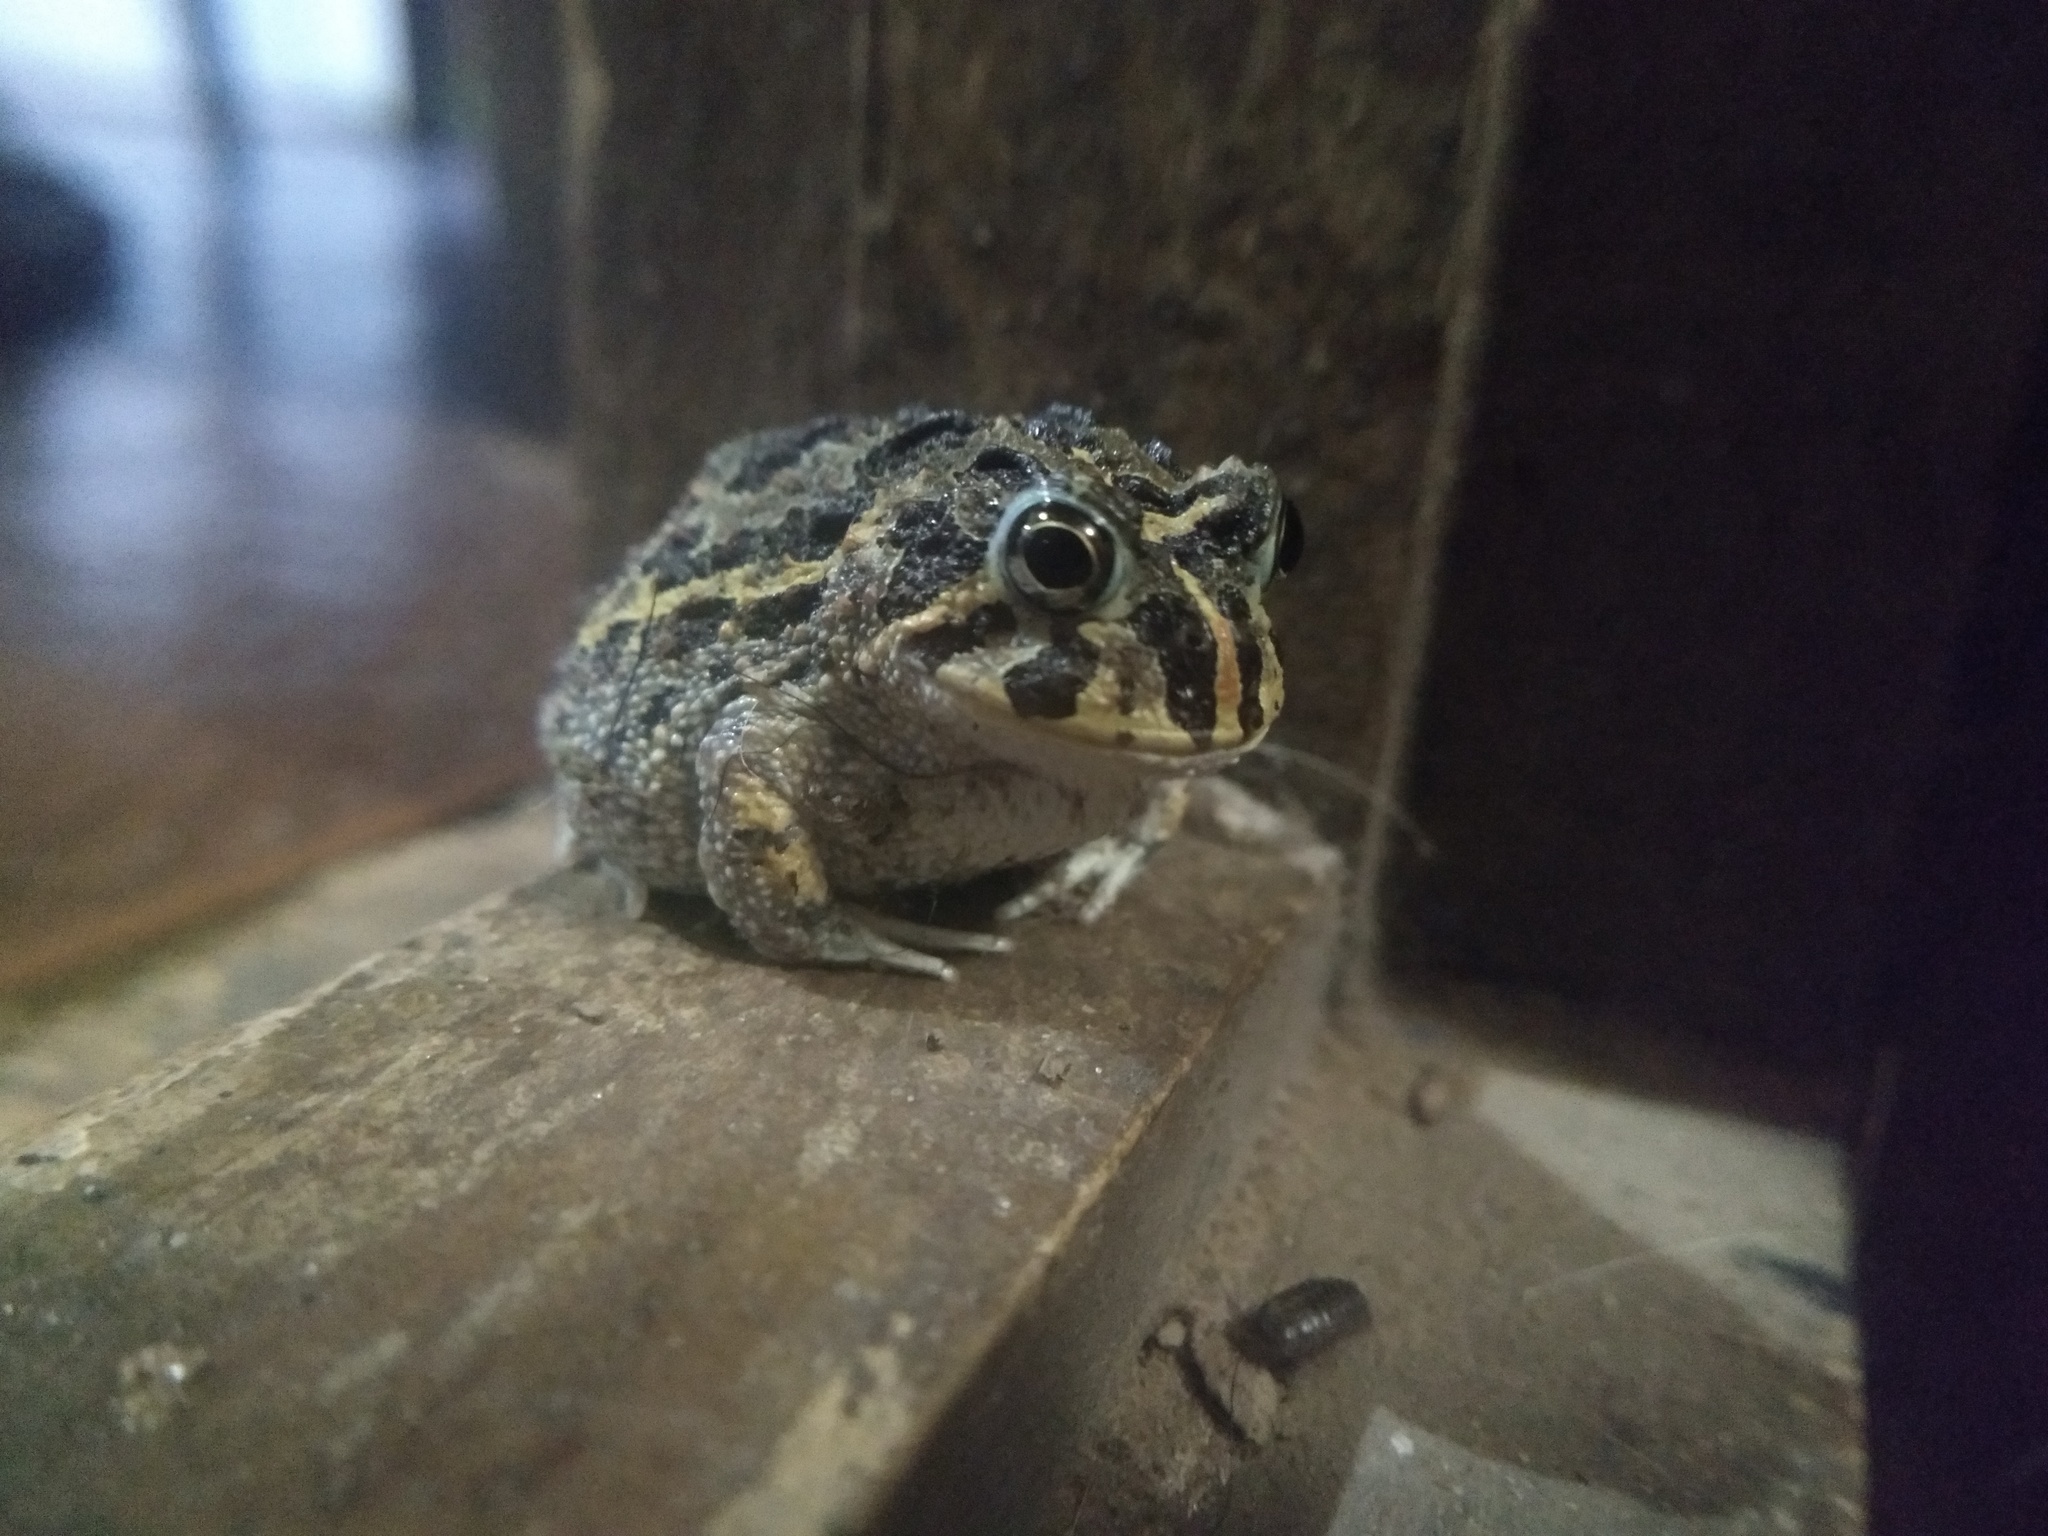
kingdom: Animalia
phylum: Chordata
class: Amphibia
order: Anura
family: Odontophrynidae
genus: Odontophrynus
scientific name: Odontophrynus
